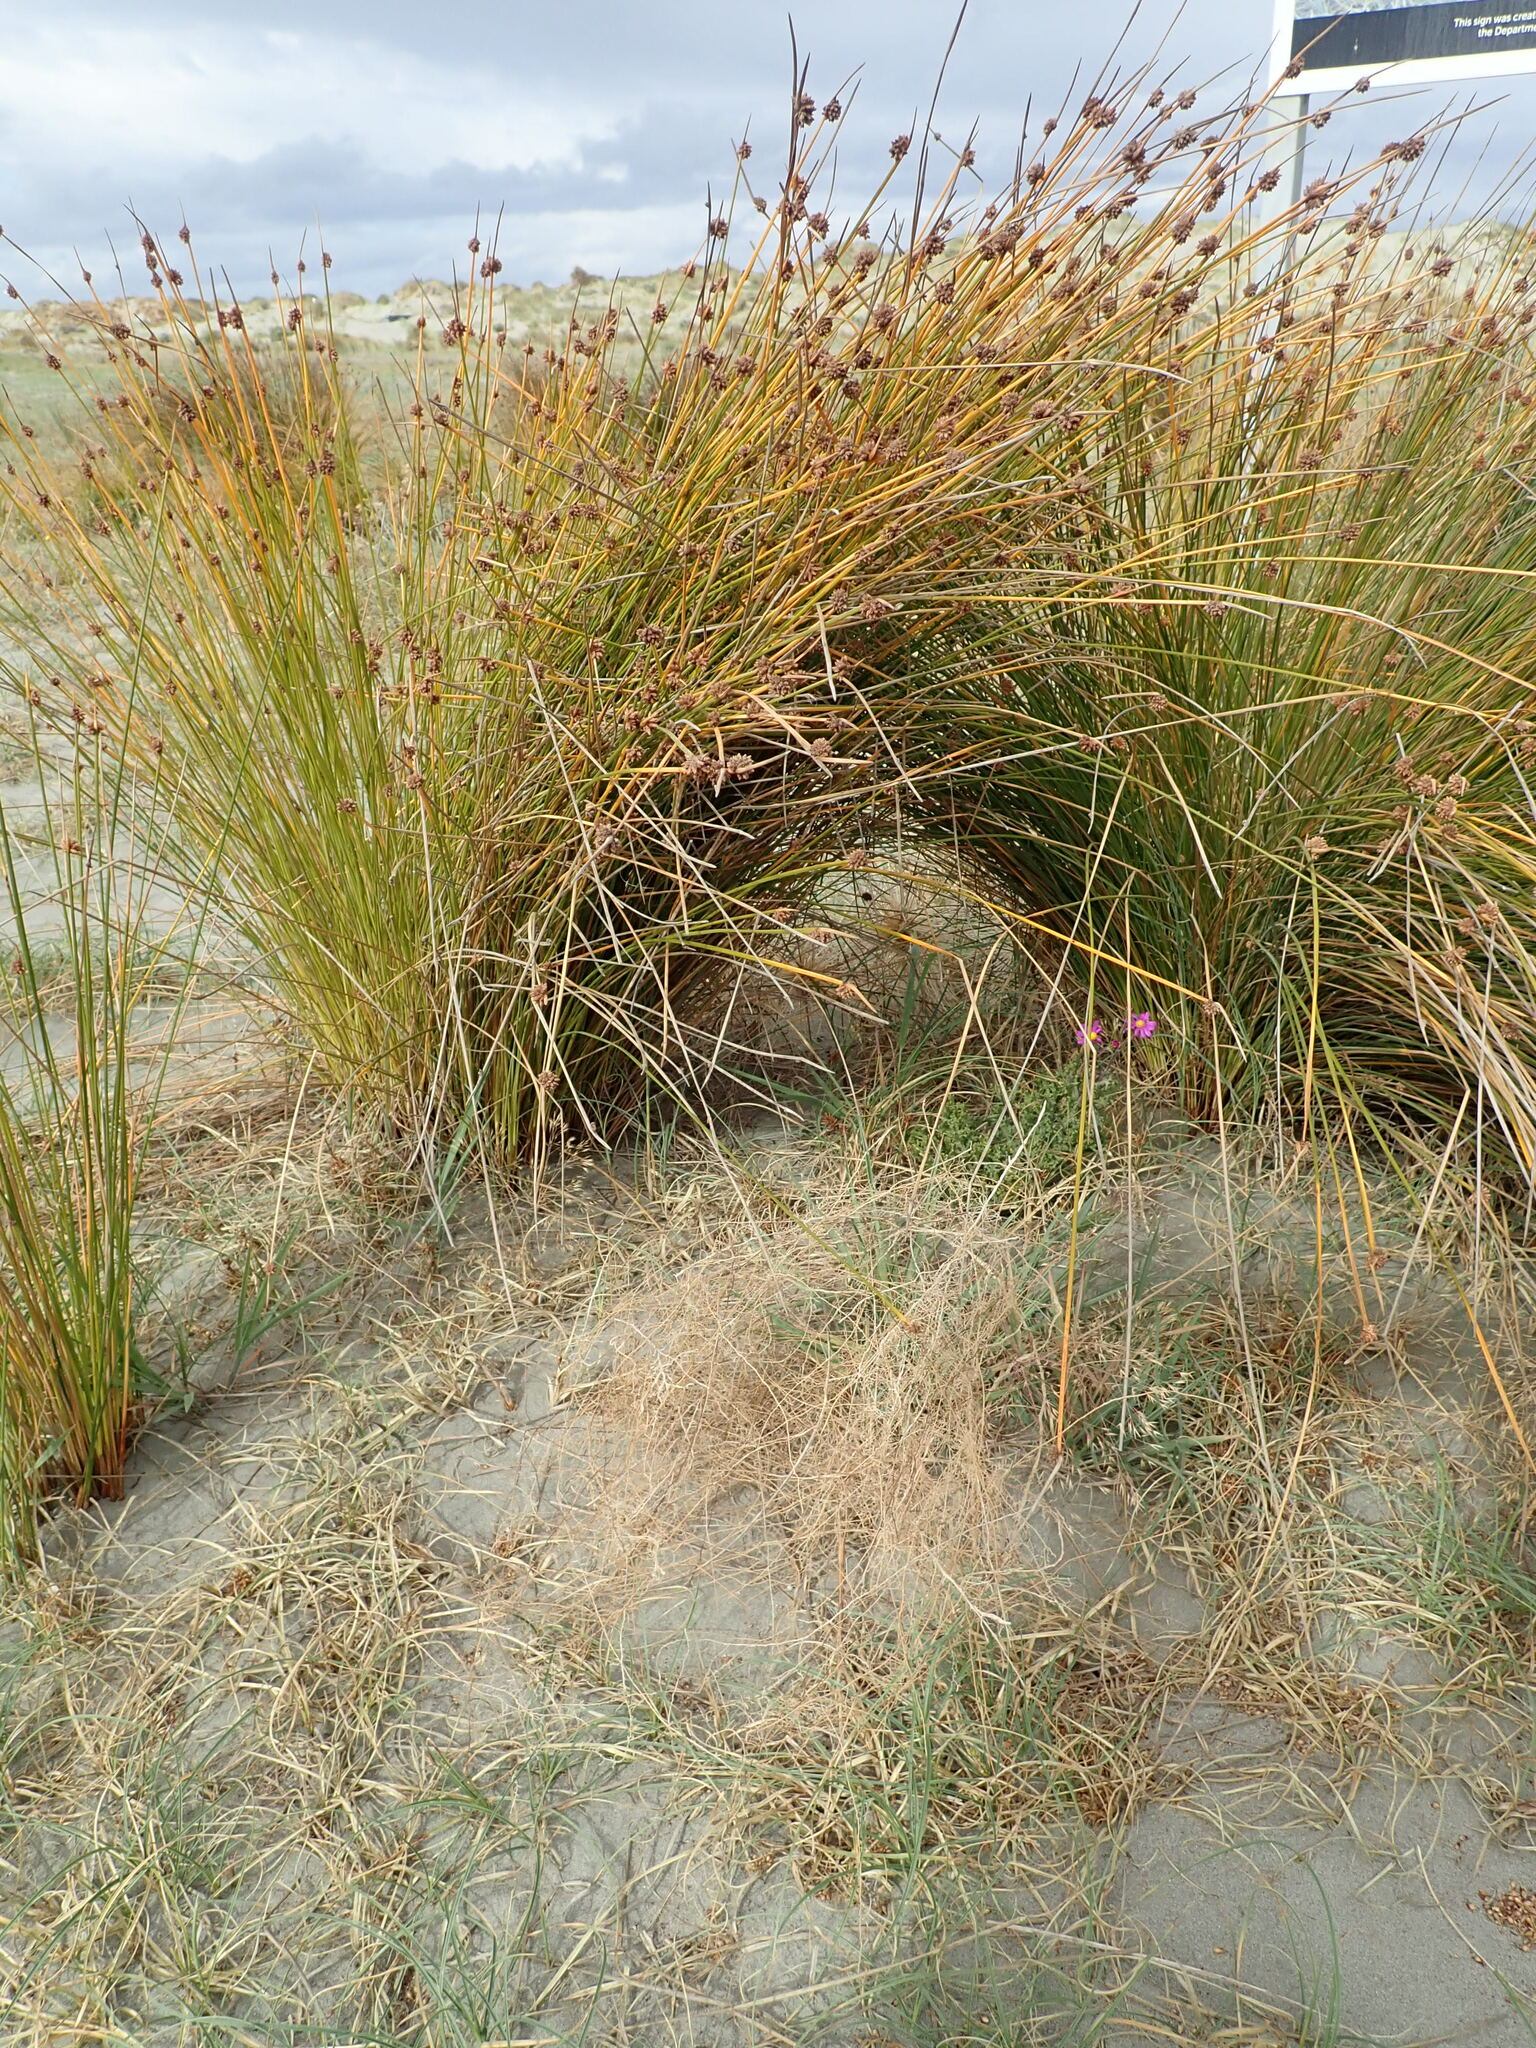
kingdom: Plantae
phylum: Tracheophyta
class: Magnoliopsida
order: Asterales
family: Asteraceae
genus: Senecio
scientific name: Senecio elegans
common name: Purple groundsel
